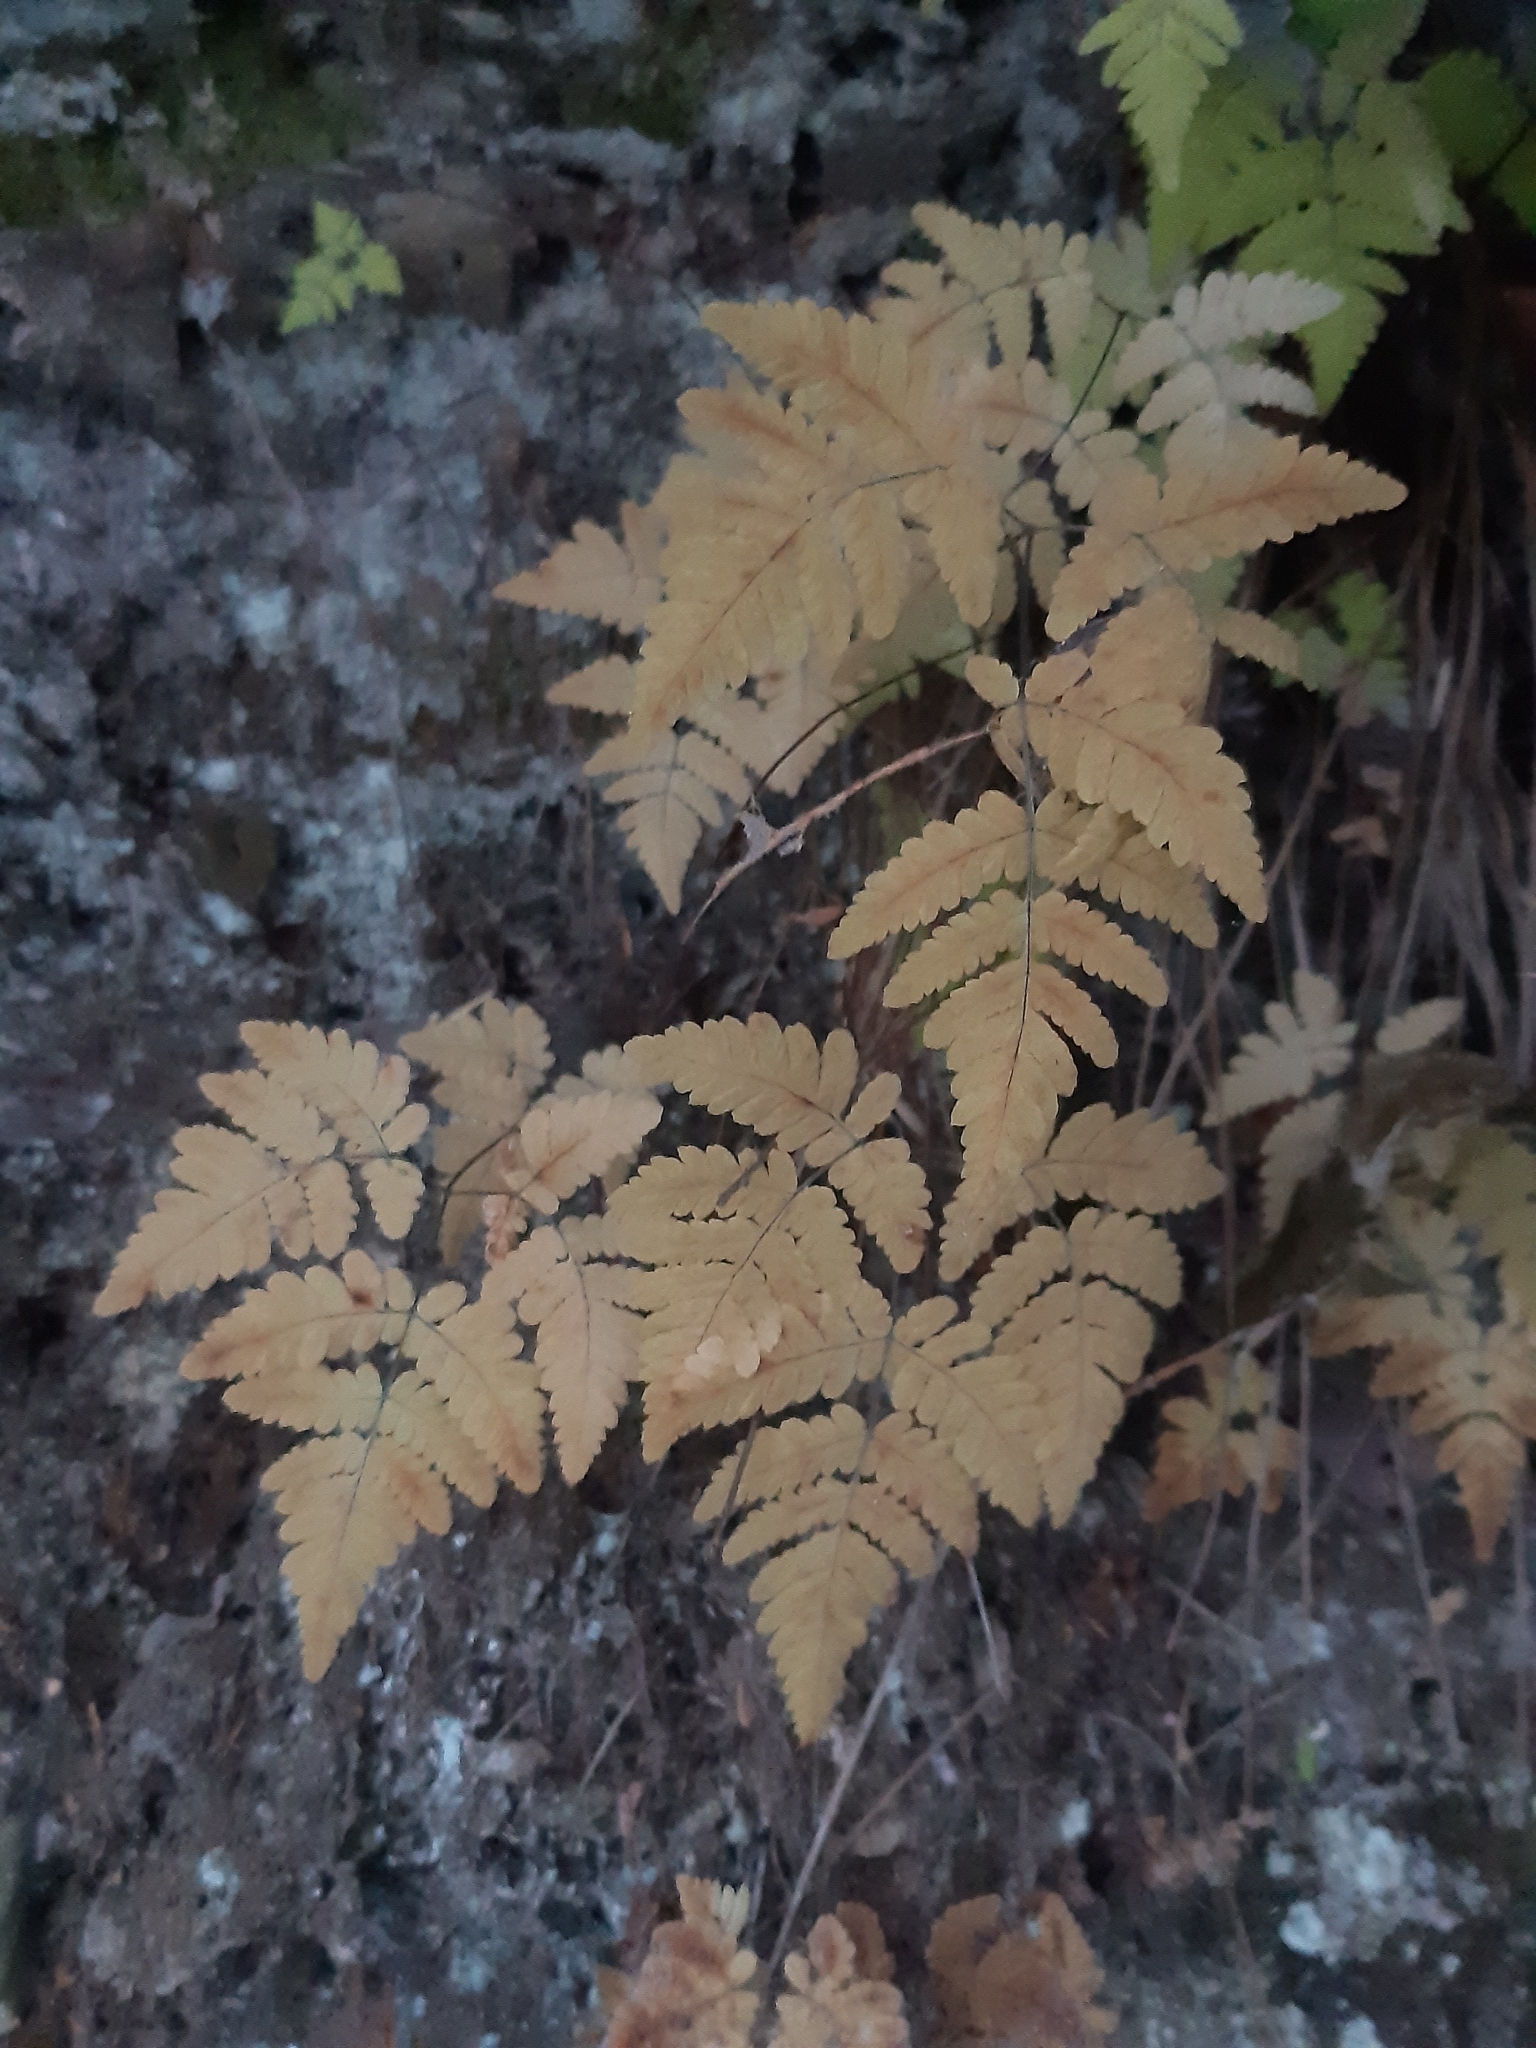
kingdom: Plantae
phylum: Tracheophyta
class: Polypodiopsida
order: Polypodiales
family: Cystopteridaceae
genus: Gymnocarpium
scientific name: Gymnocarpium dryopteris
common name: Oak fern
